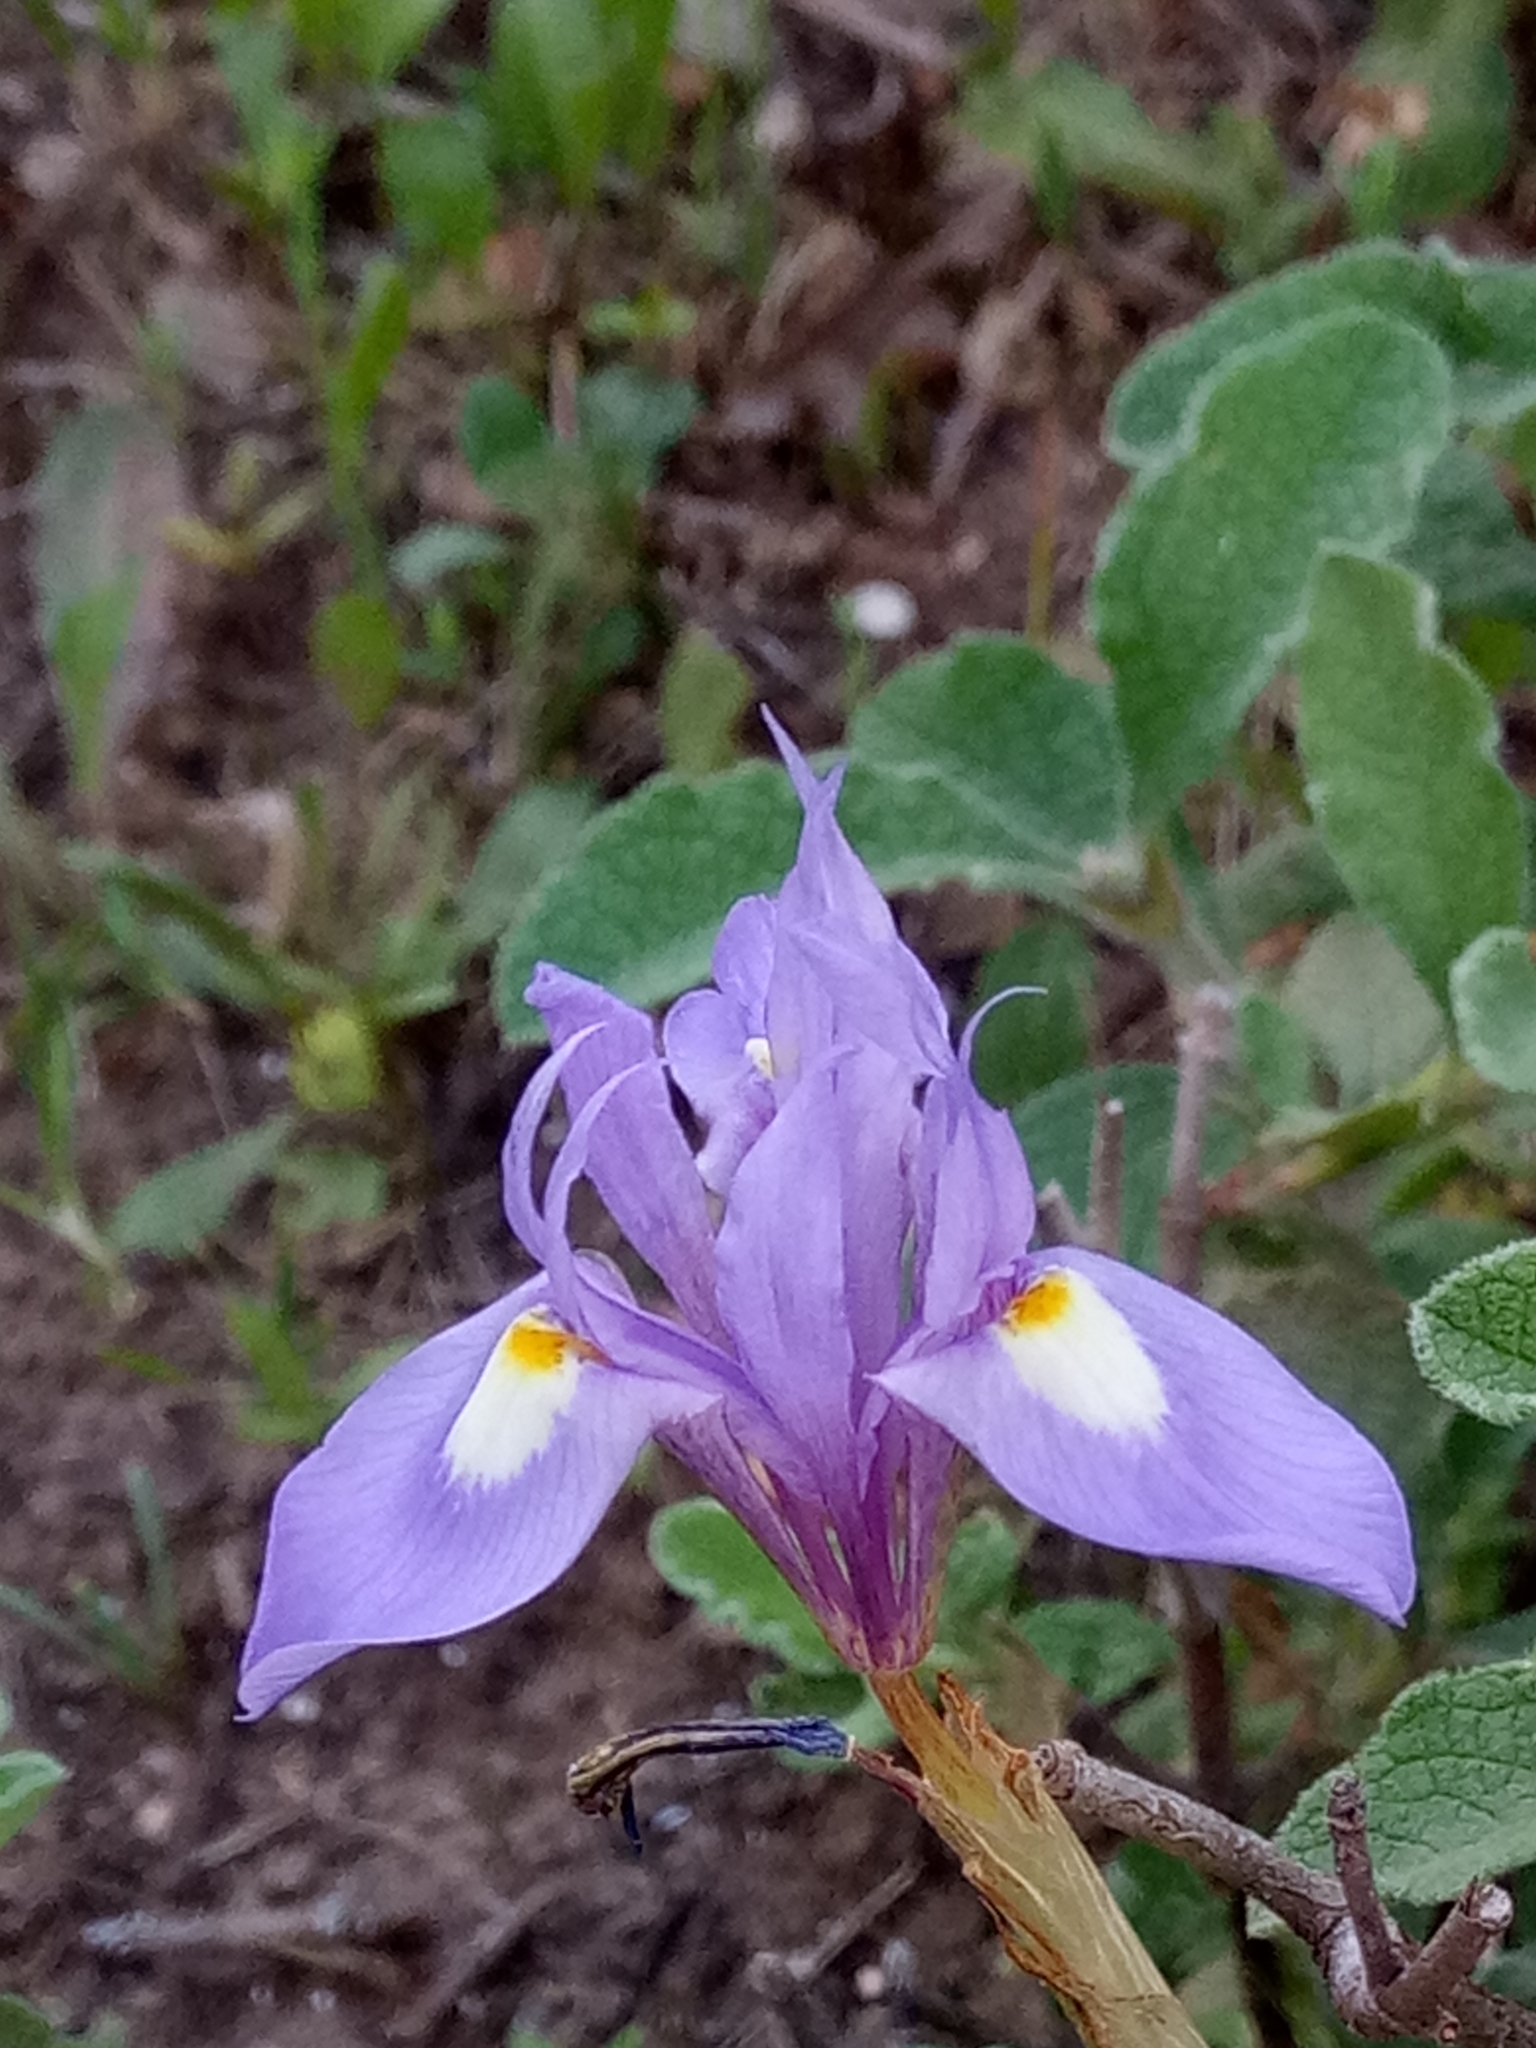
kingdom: Plantae
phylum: Tracheophyta
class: Liliopsida
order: Asparagales
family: Iridaceae
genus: Moraea
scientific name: Moraea sisyrinchium
